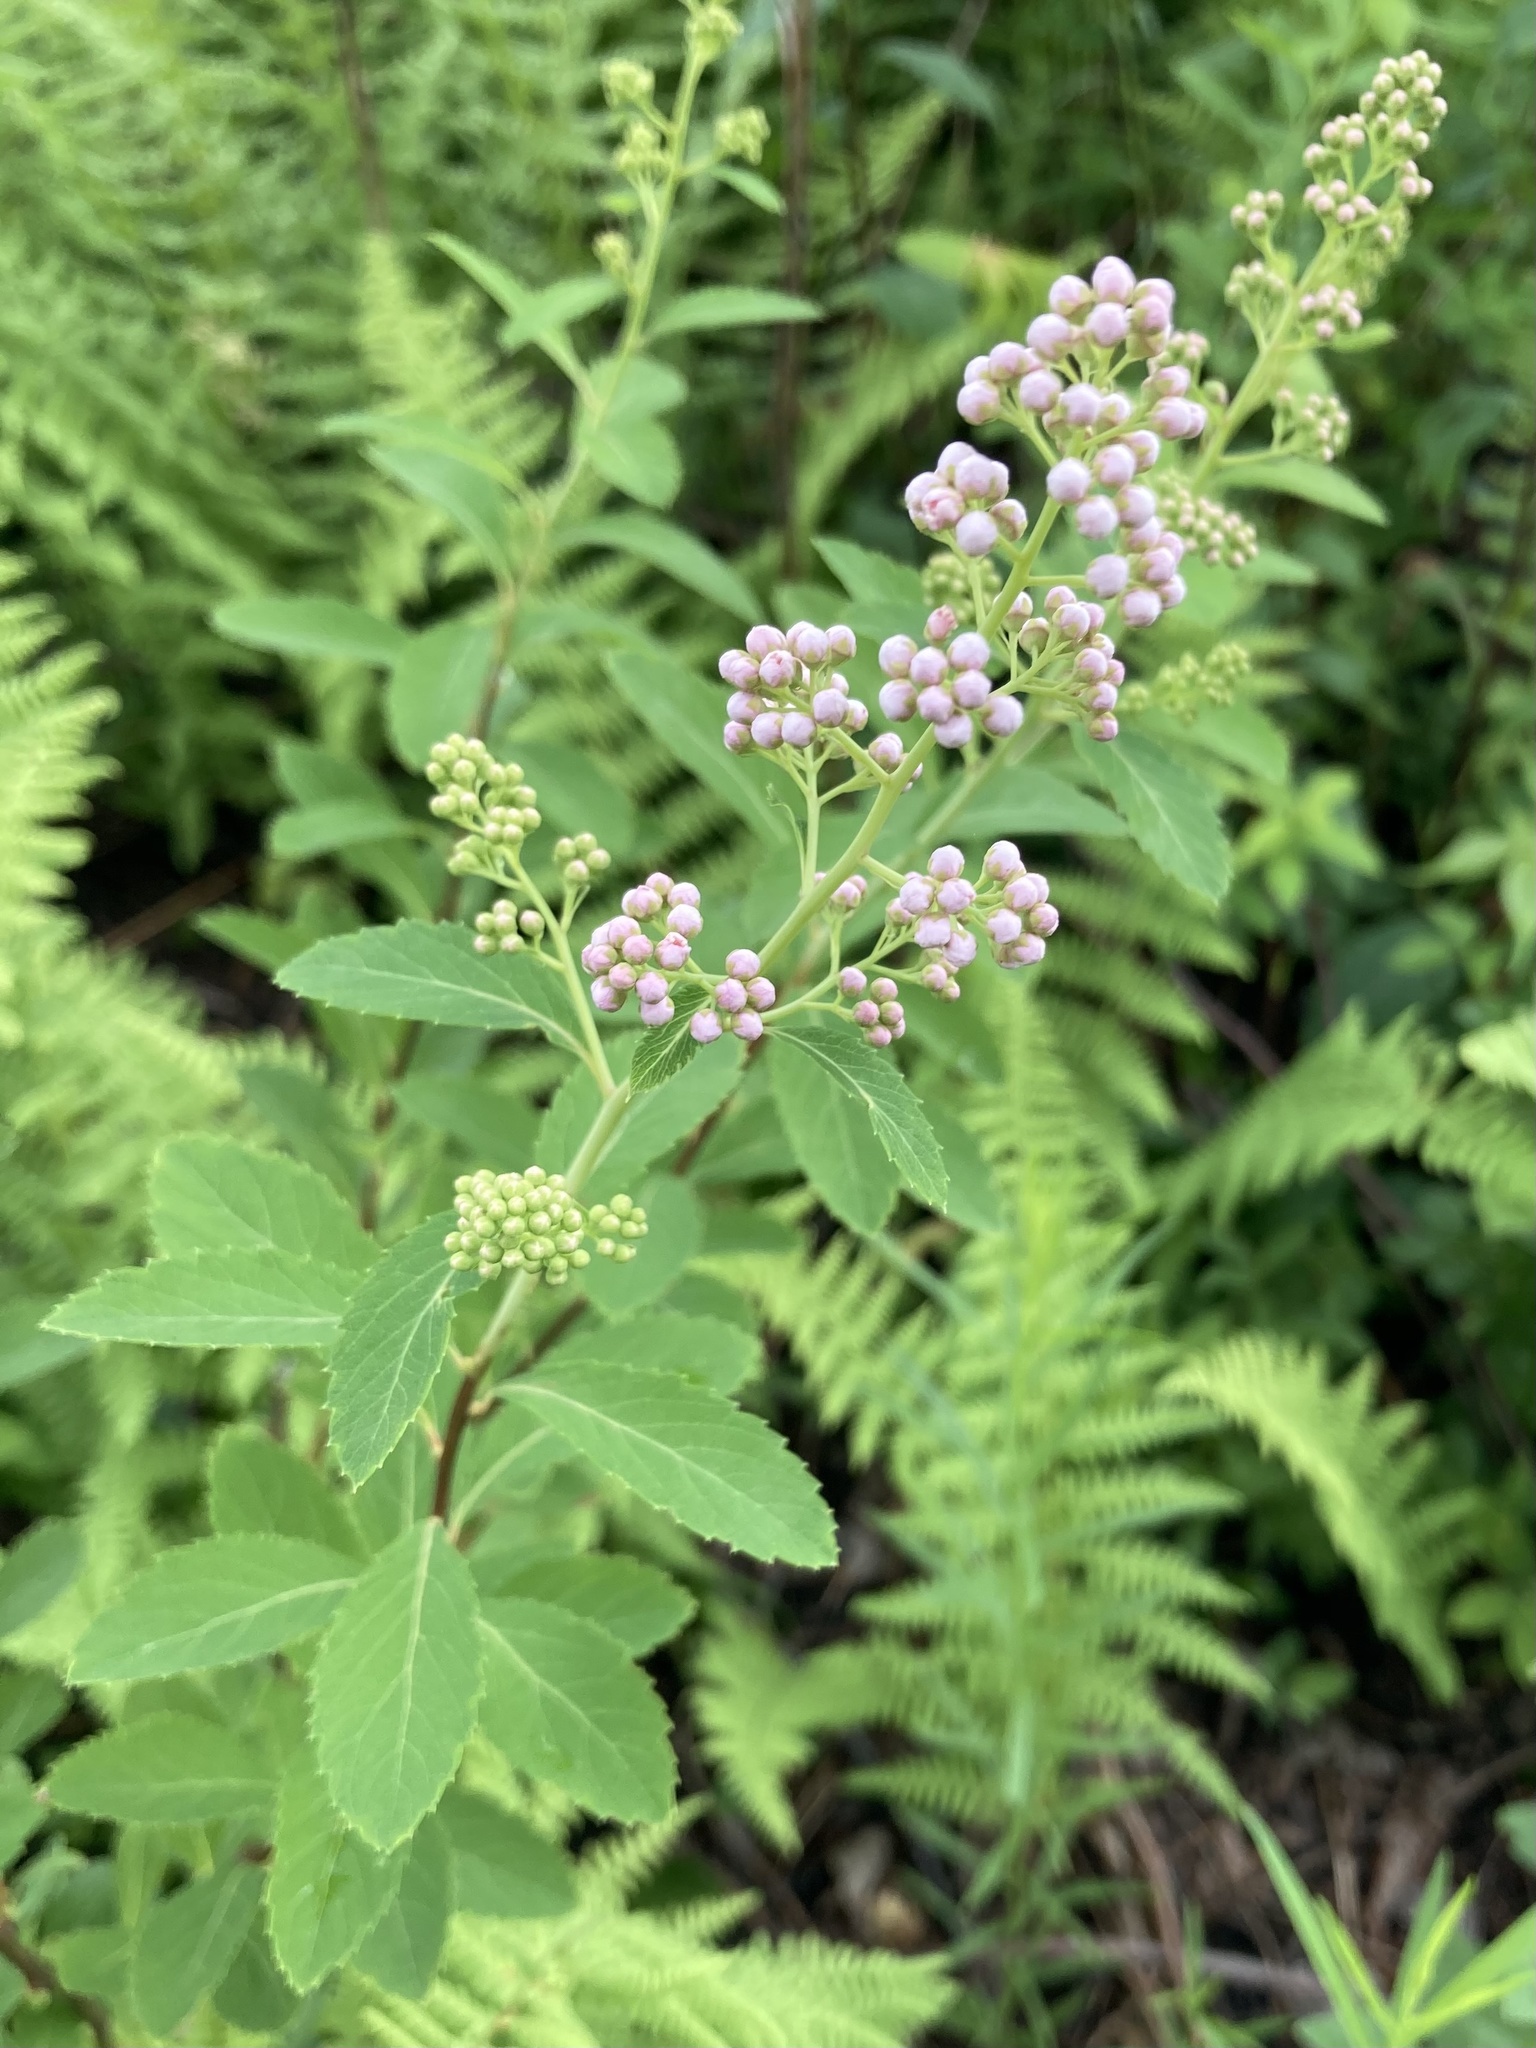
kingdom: Plantae
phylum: Tracheophyta
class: Magnoliopsida
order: Rosales
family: Rosaceae
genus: Spiraea
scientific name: Spiraea alba
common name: Pale bridewort
